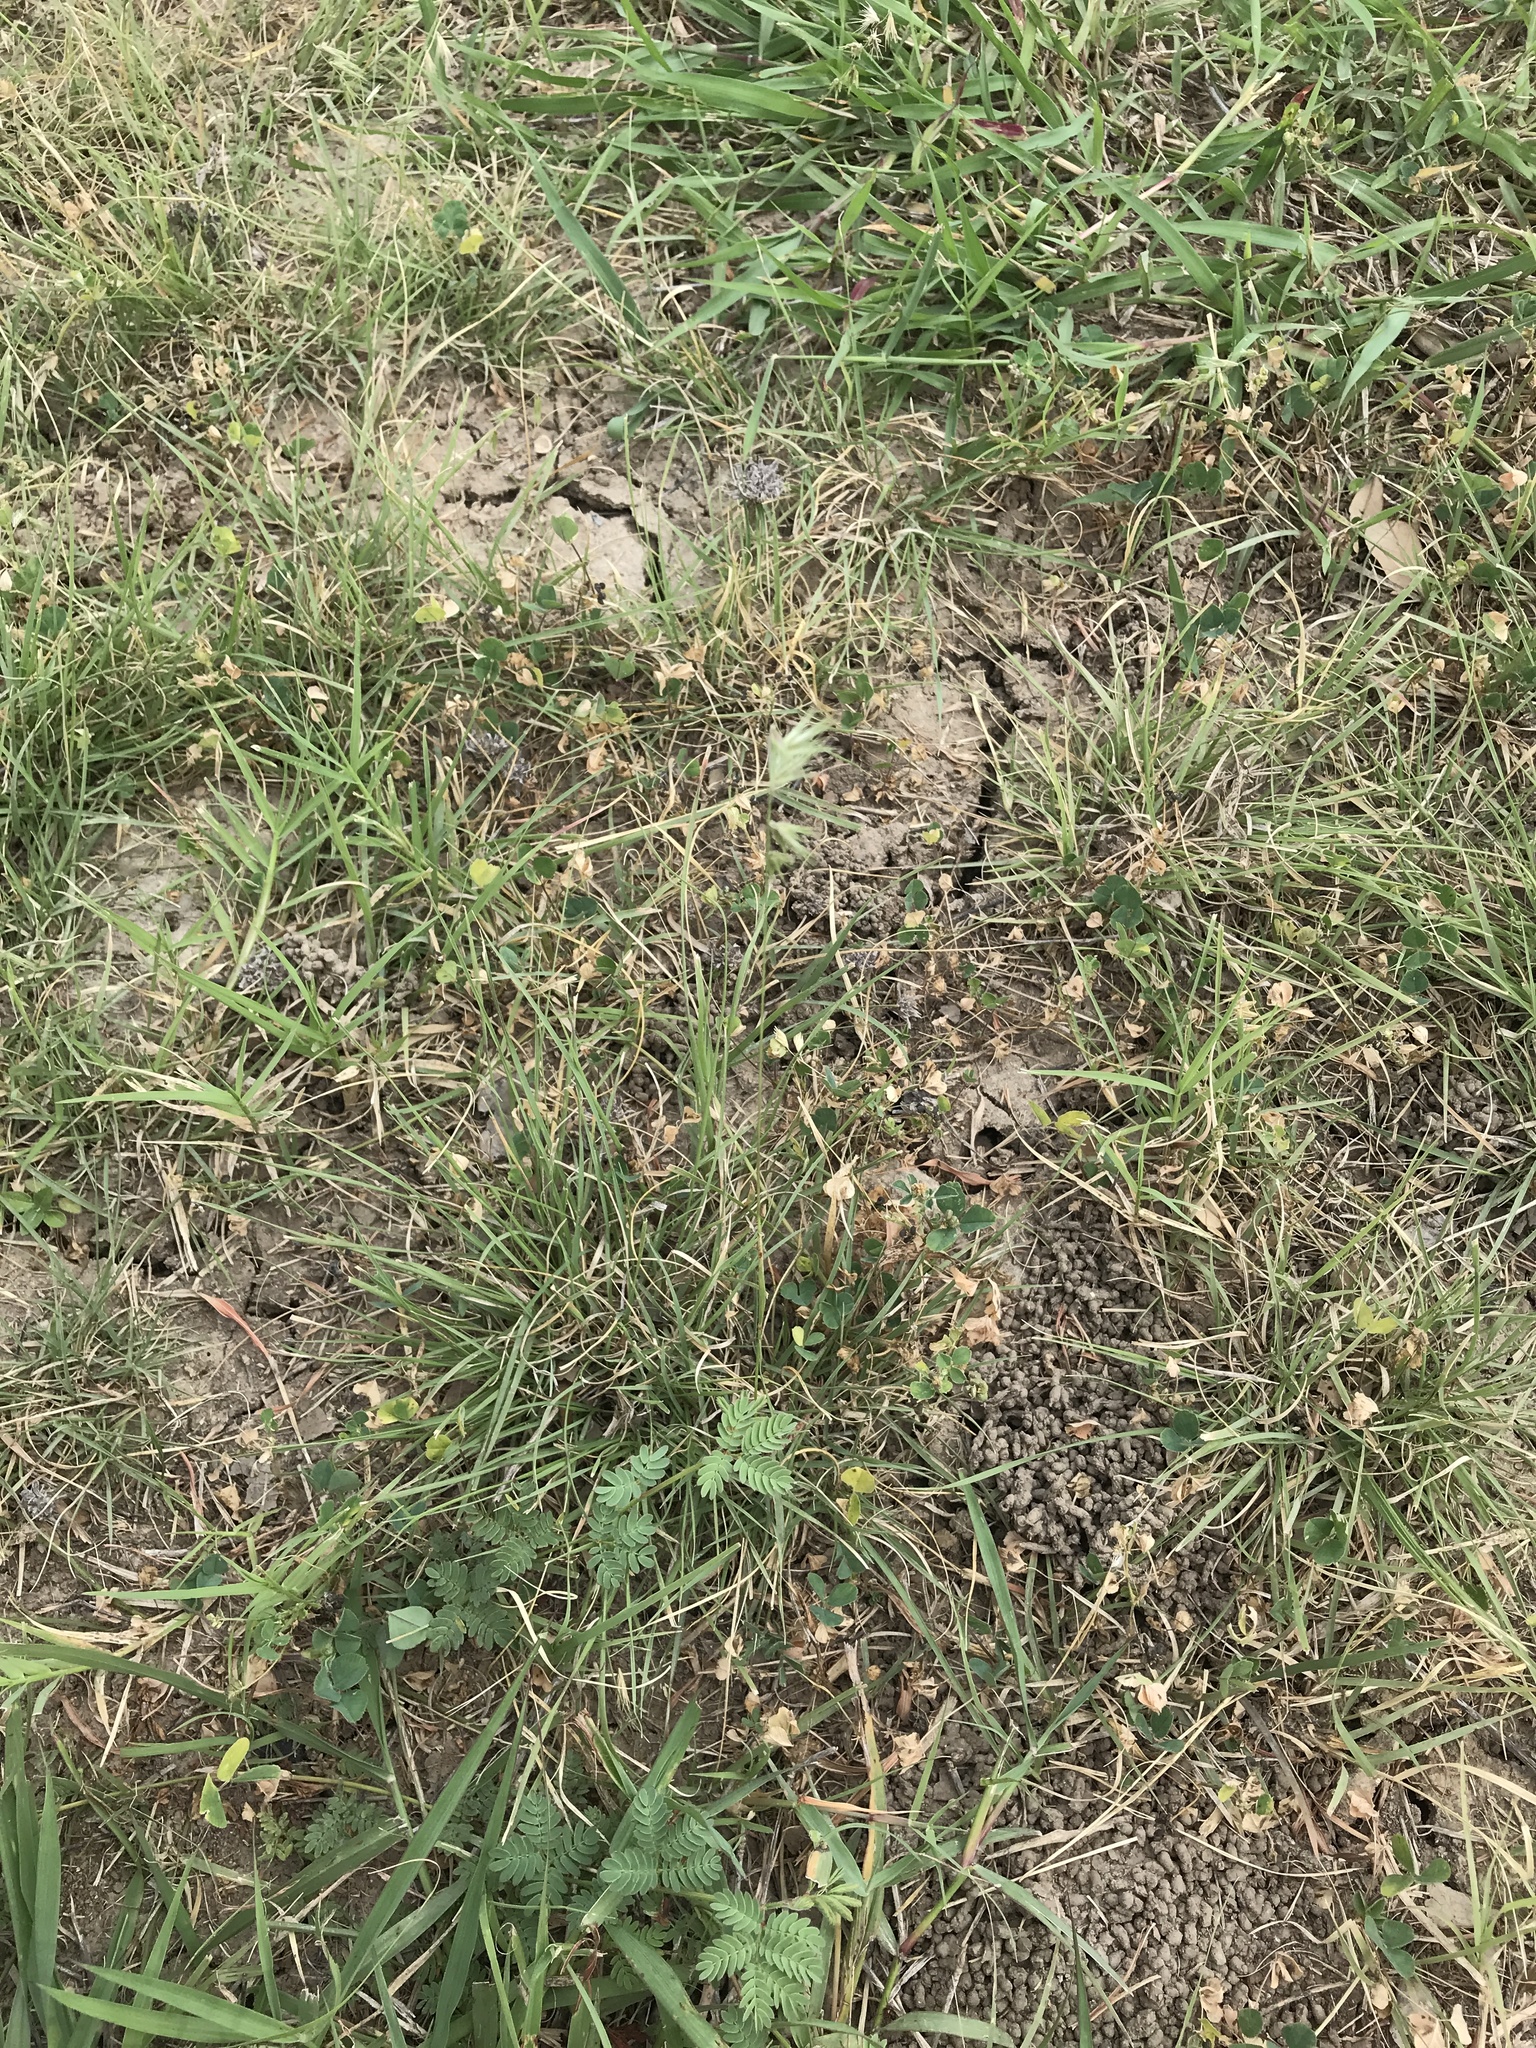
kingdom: Plantae
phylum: Tracheophyta
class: Liliopsida
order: Poales
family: Poaceae
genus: Bouteloua
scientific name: Bouteloua rigidiseta
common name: Texas grama
